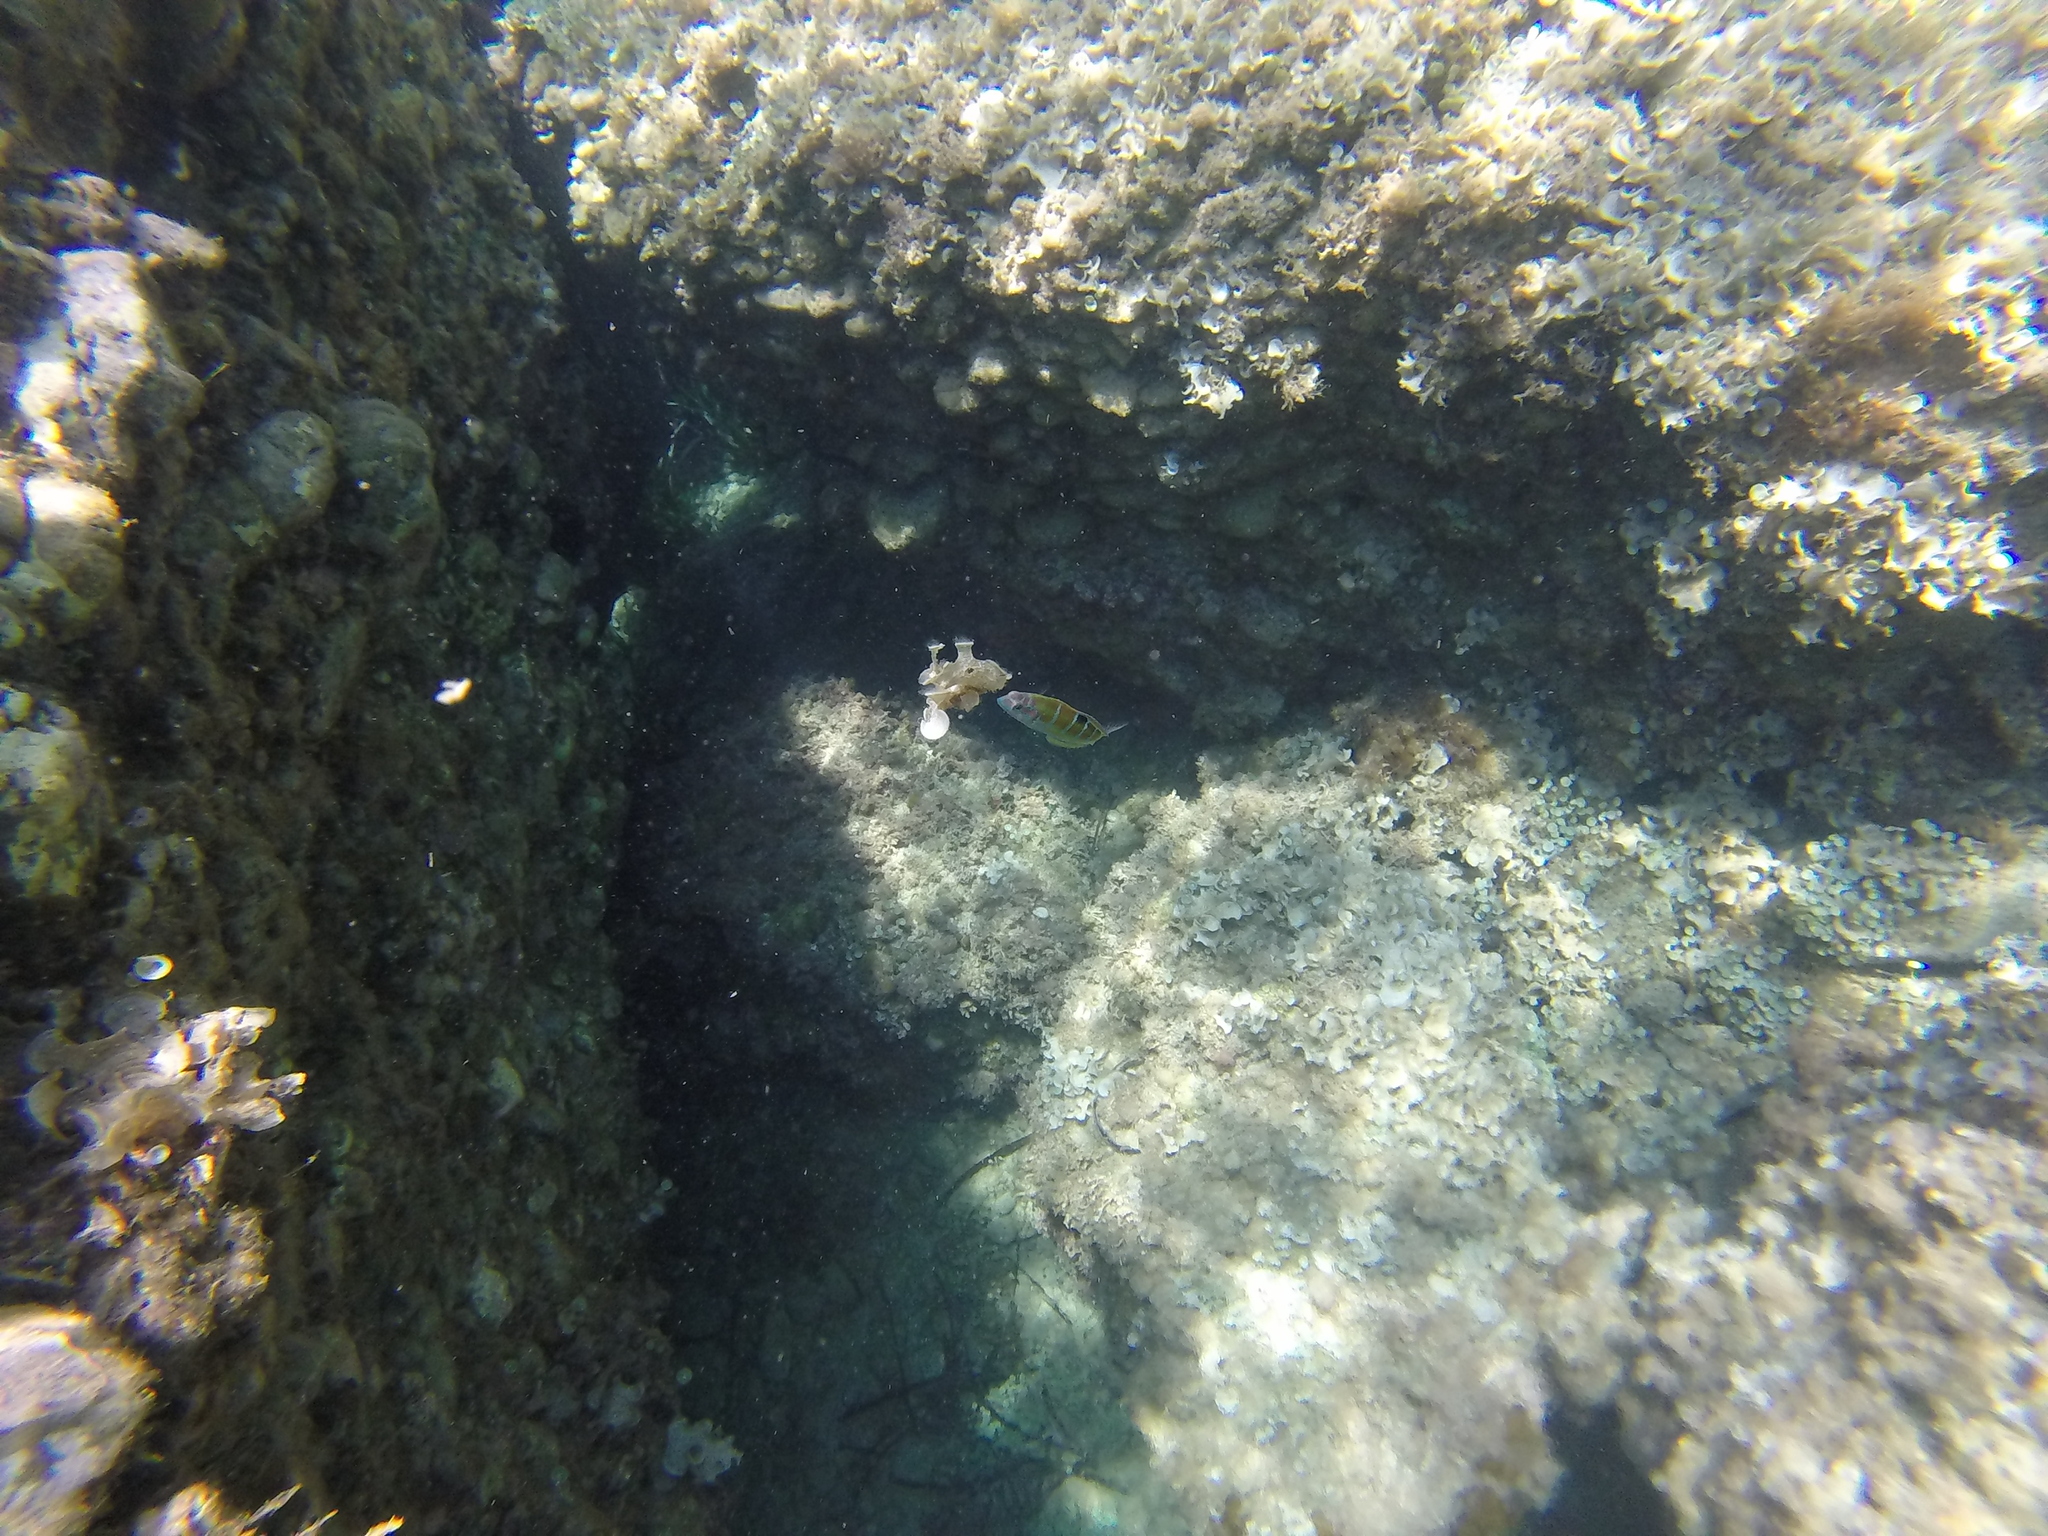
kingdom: Animalia
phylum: Chordata
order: Perciformes
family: Labridae
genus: Thalassoma
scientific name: Thalassoma pavo
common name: Ornate wrasse
